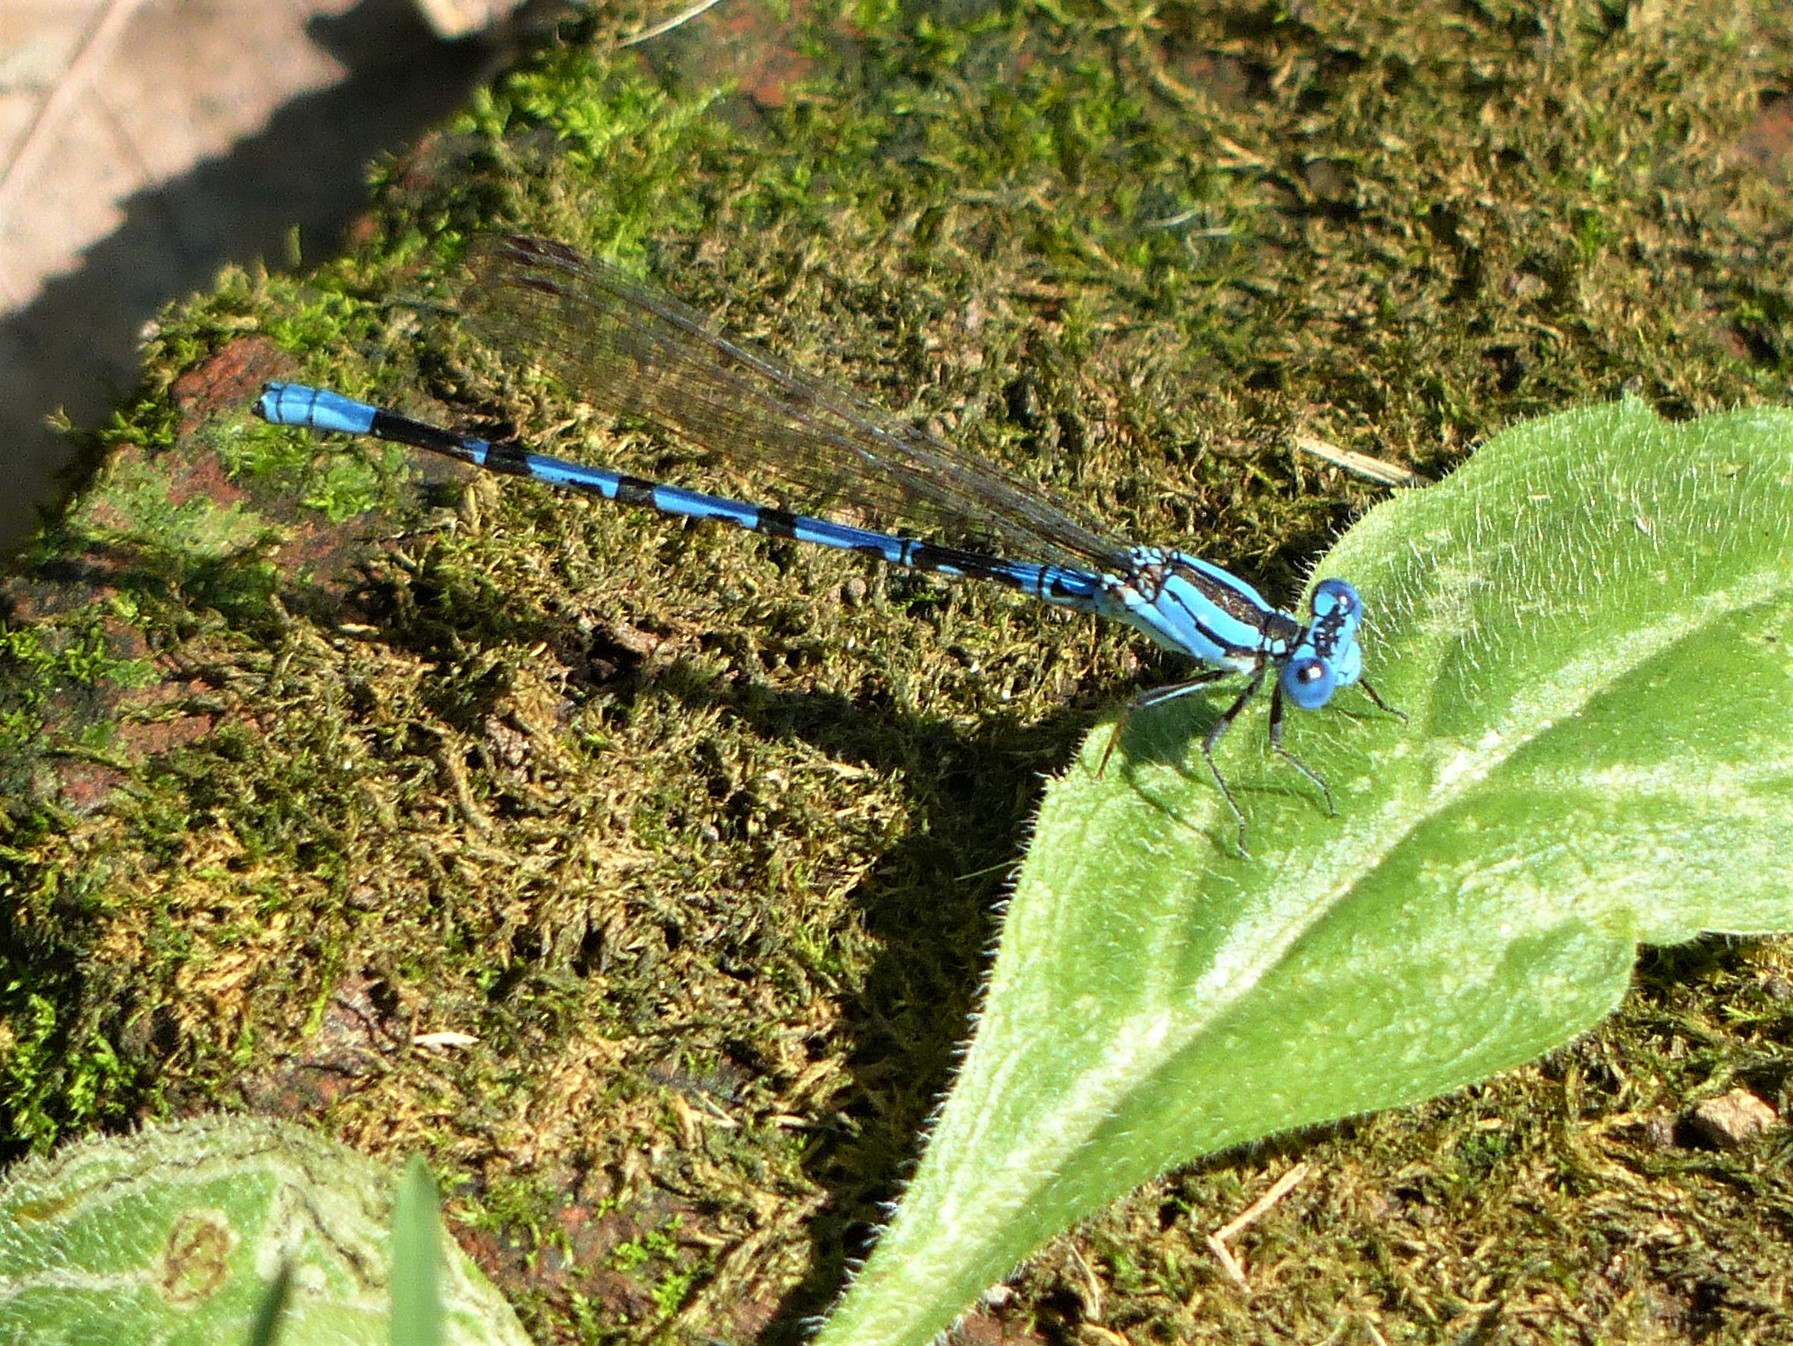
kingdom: Animalia
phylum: Arthropoda
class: Insecta
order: Odonata
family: Coenagrionidae
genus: Argia
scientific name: Argia funebris
